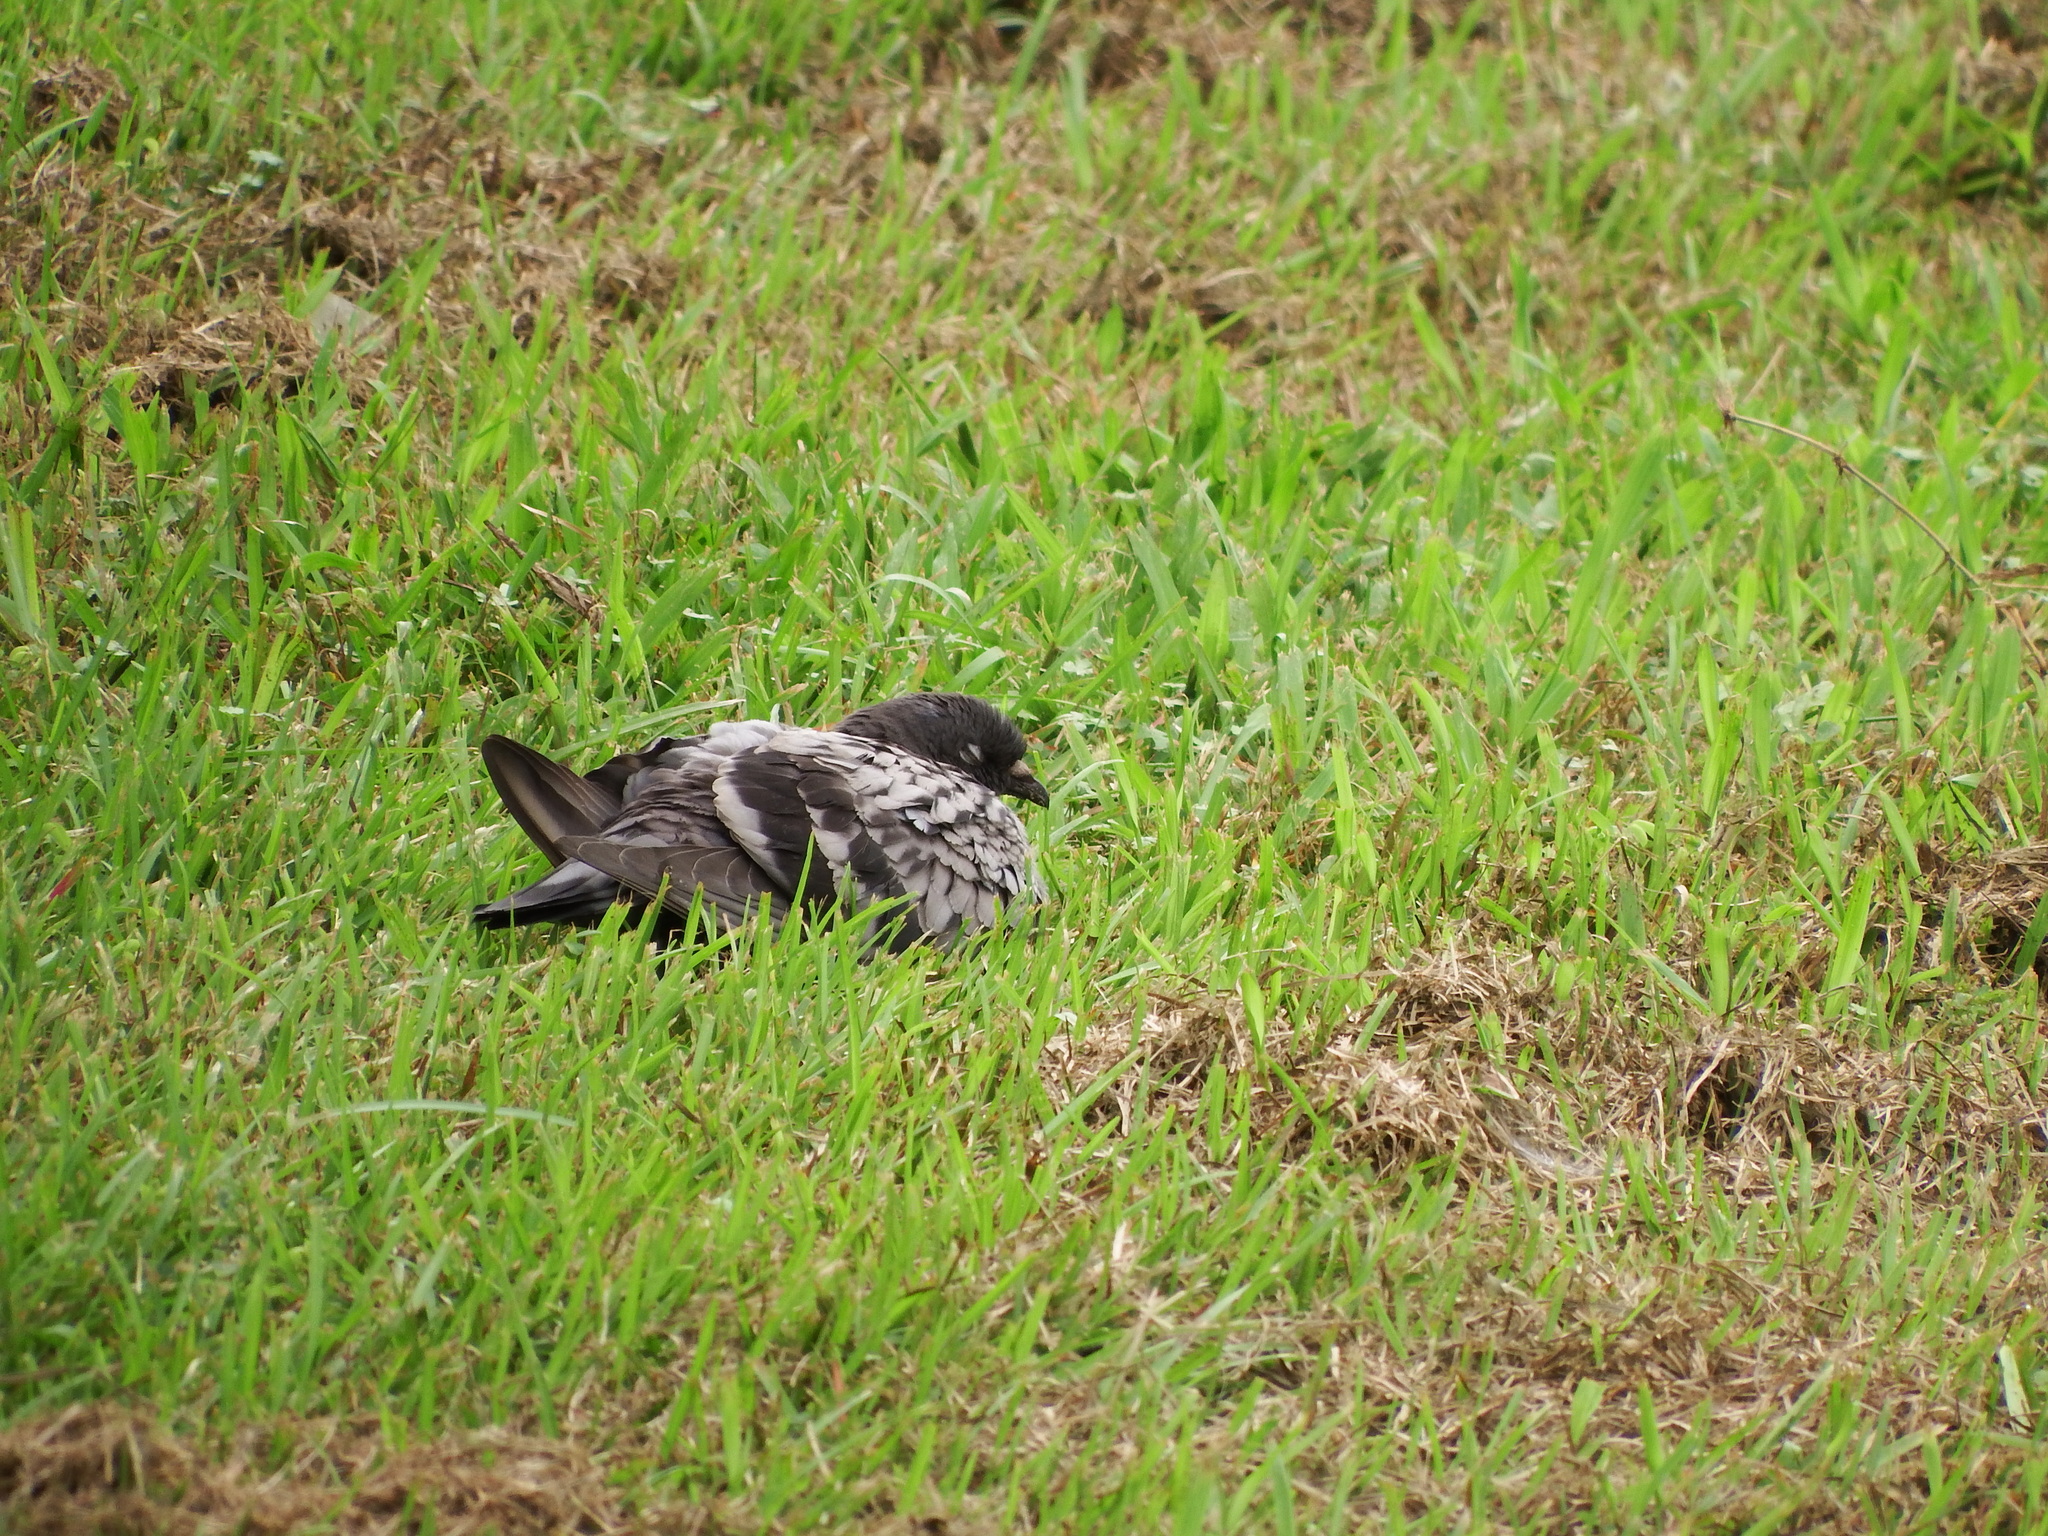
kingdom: Animalia
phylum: Chordata
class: Aves
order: Columbiformes
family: Columbidae
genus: Columba
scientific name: Columba livia
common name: Rock pigeon
